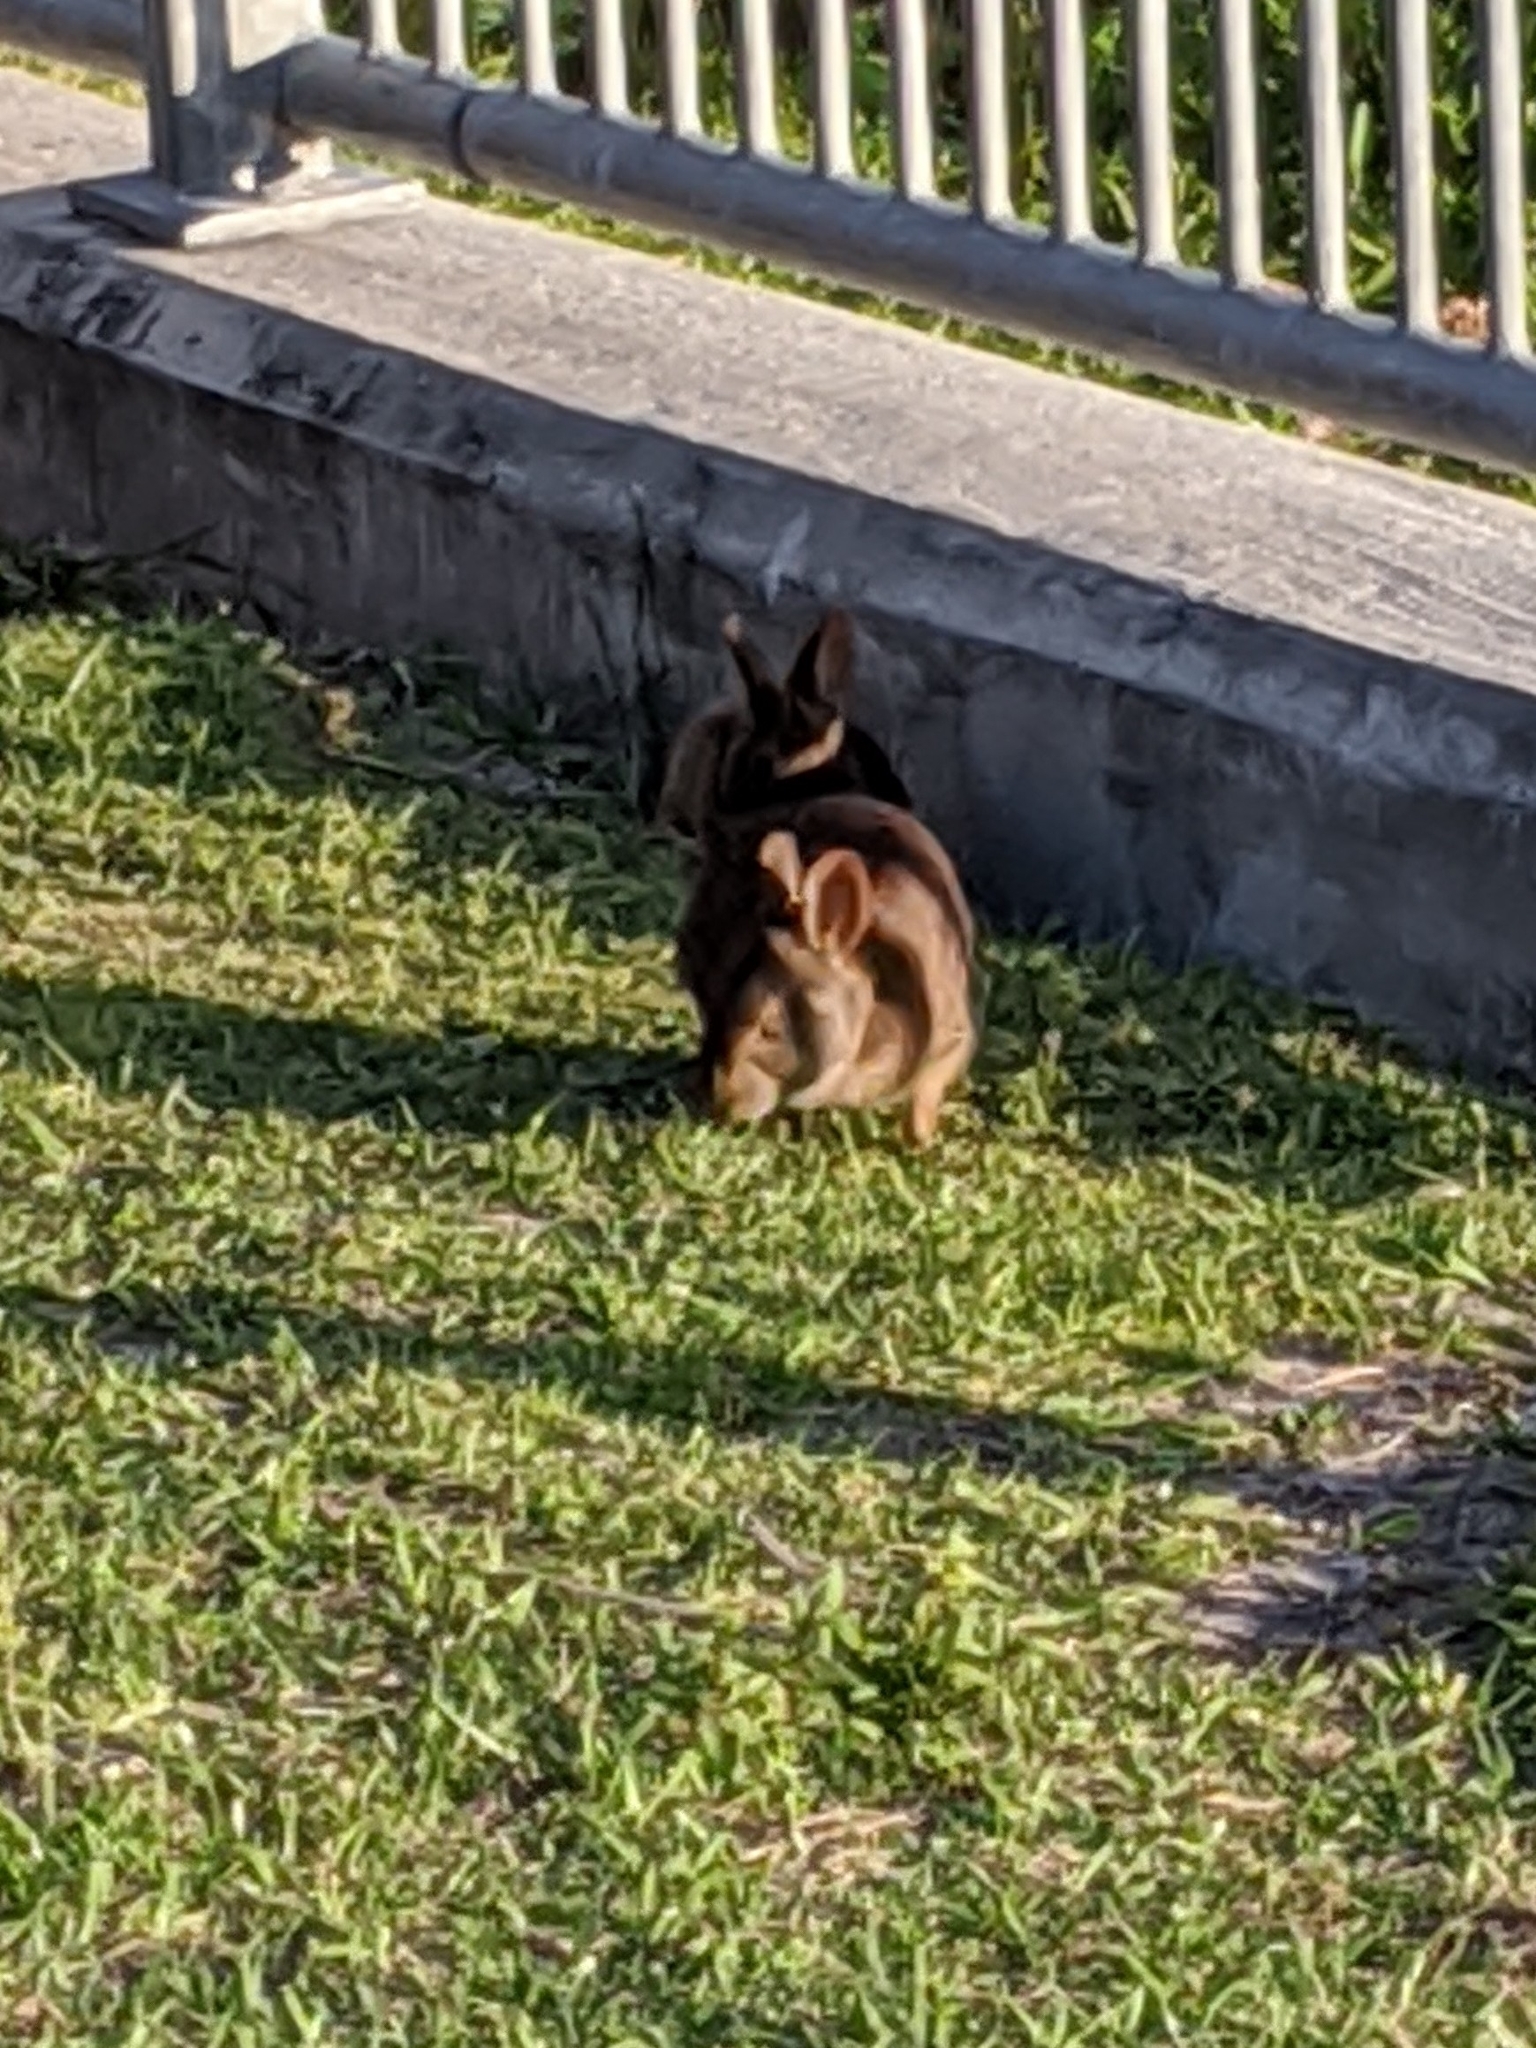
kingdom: Animalia
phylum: Chordata
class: Mammalia
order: Lagomorpha
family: Leporidae
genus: Sylvilagus
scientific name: Sylvilagus palustris
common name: Marsh rabbit
